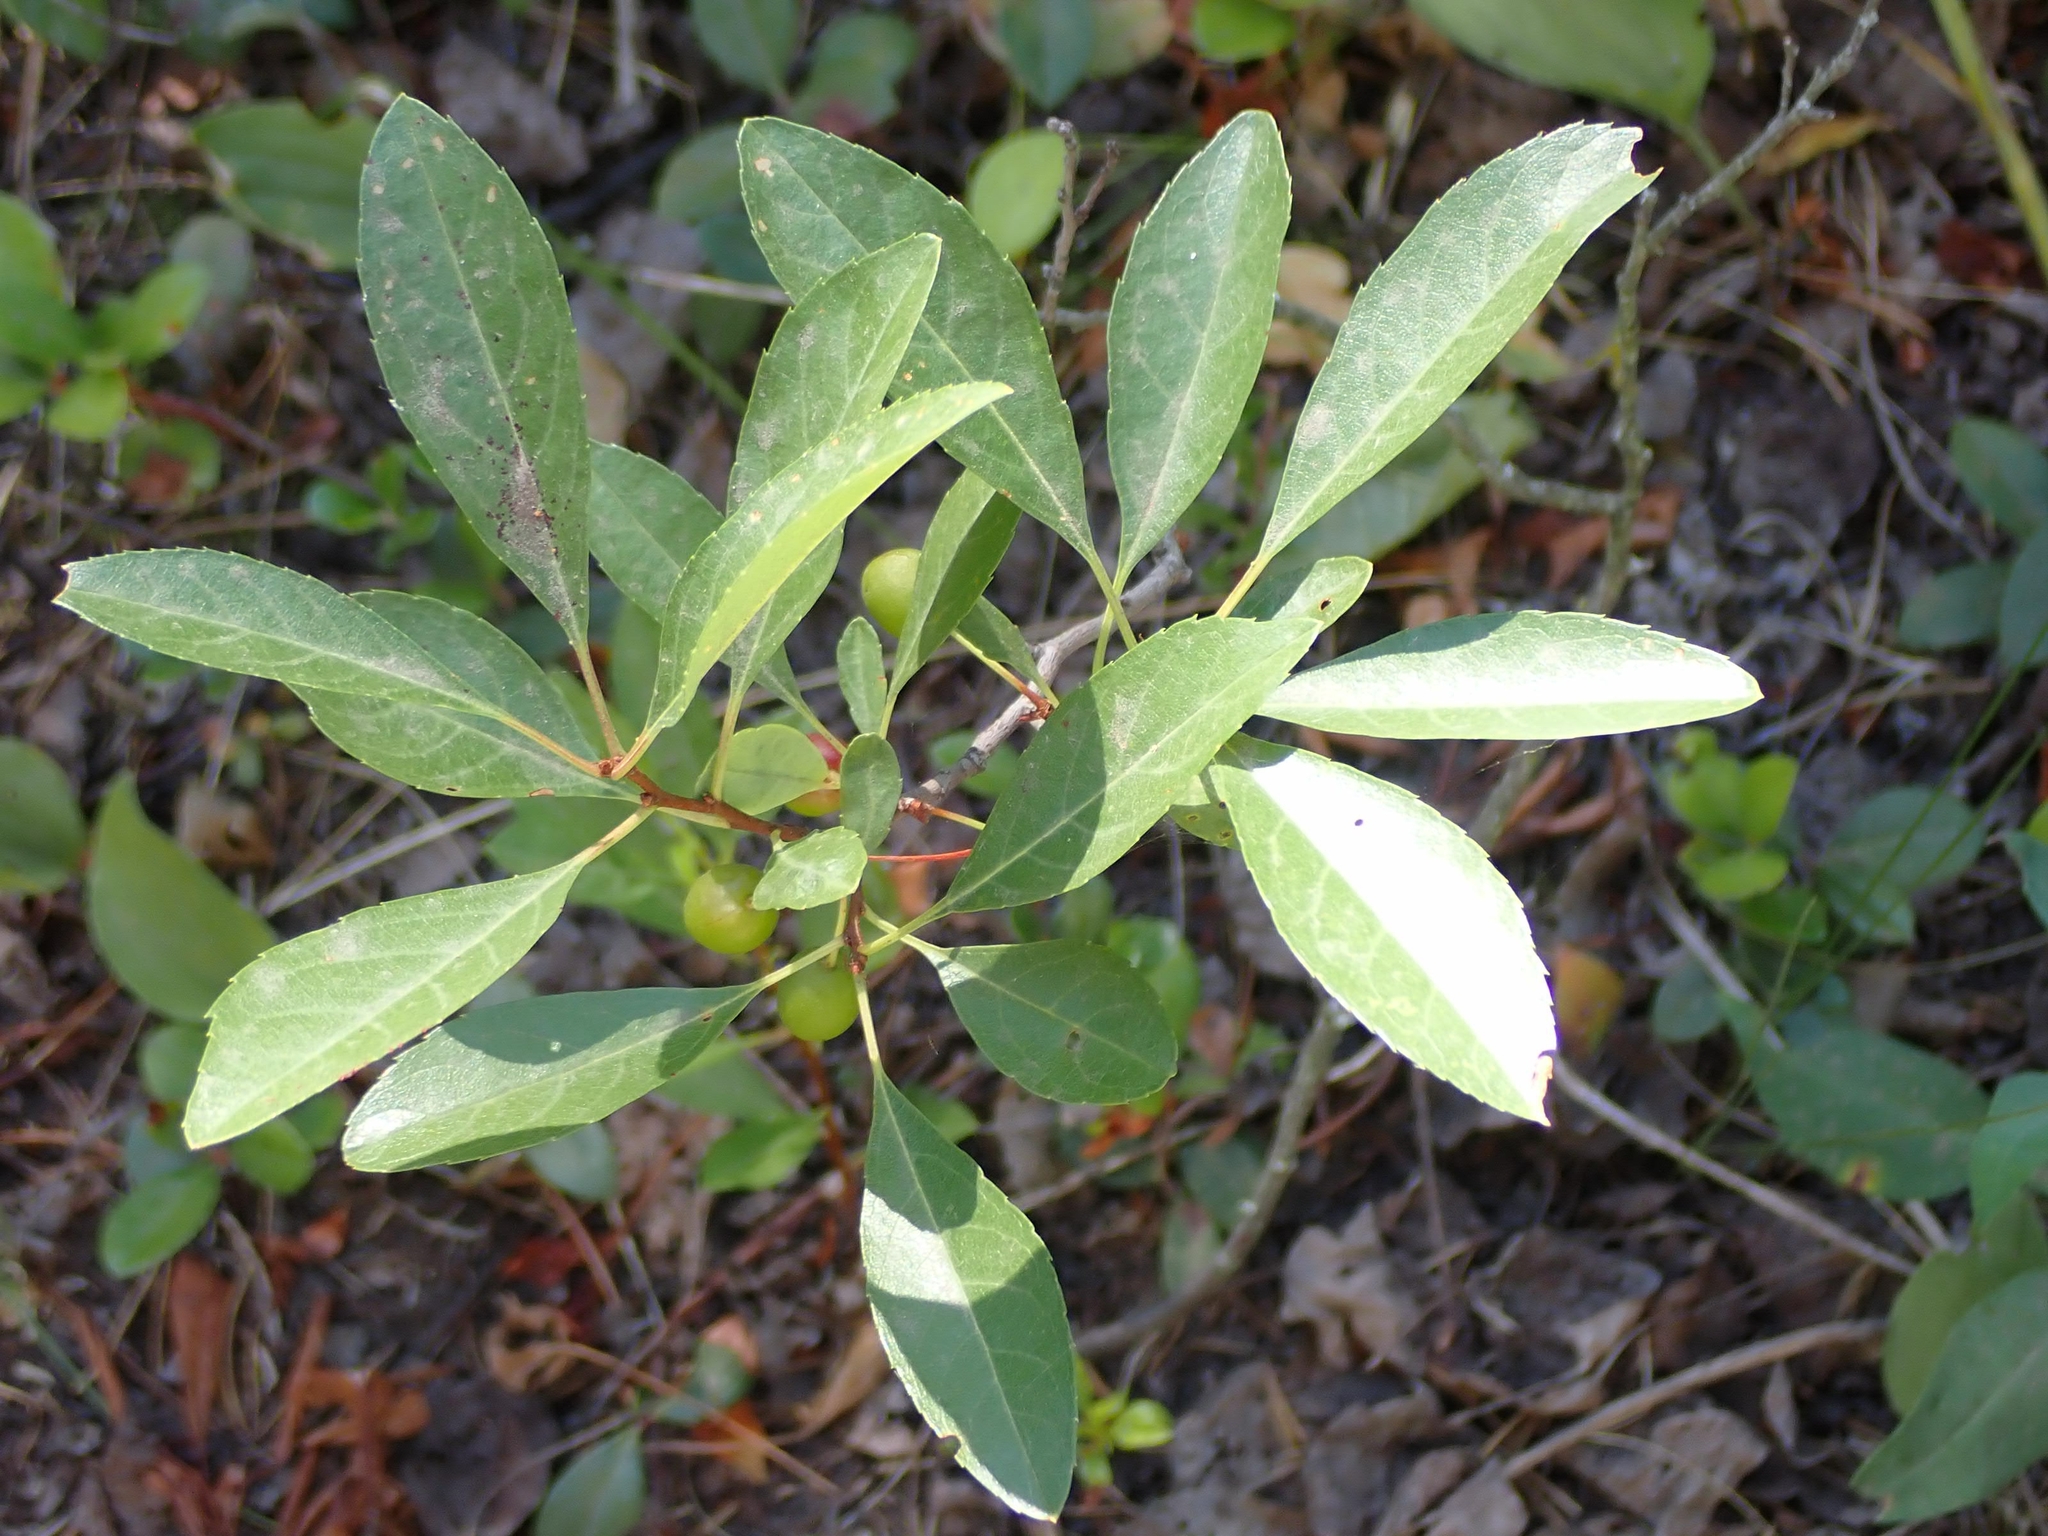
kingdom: Plantae
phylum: Tracheophyta
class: Magnoliopsida
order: Rosales
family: Rosaceae
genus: Prunus
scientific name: Prunus pumila
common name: Dwarf cherry
